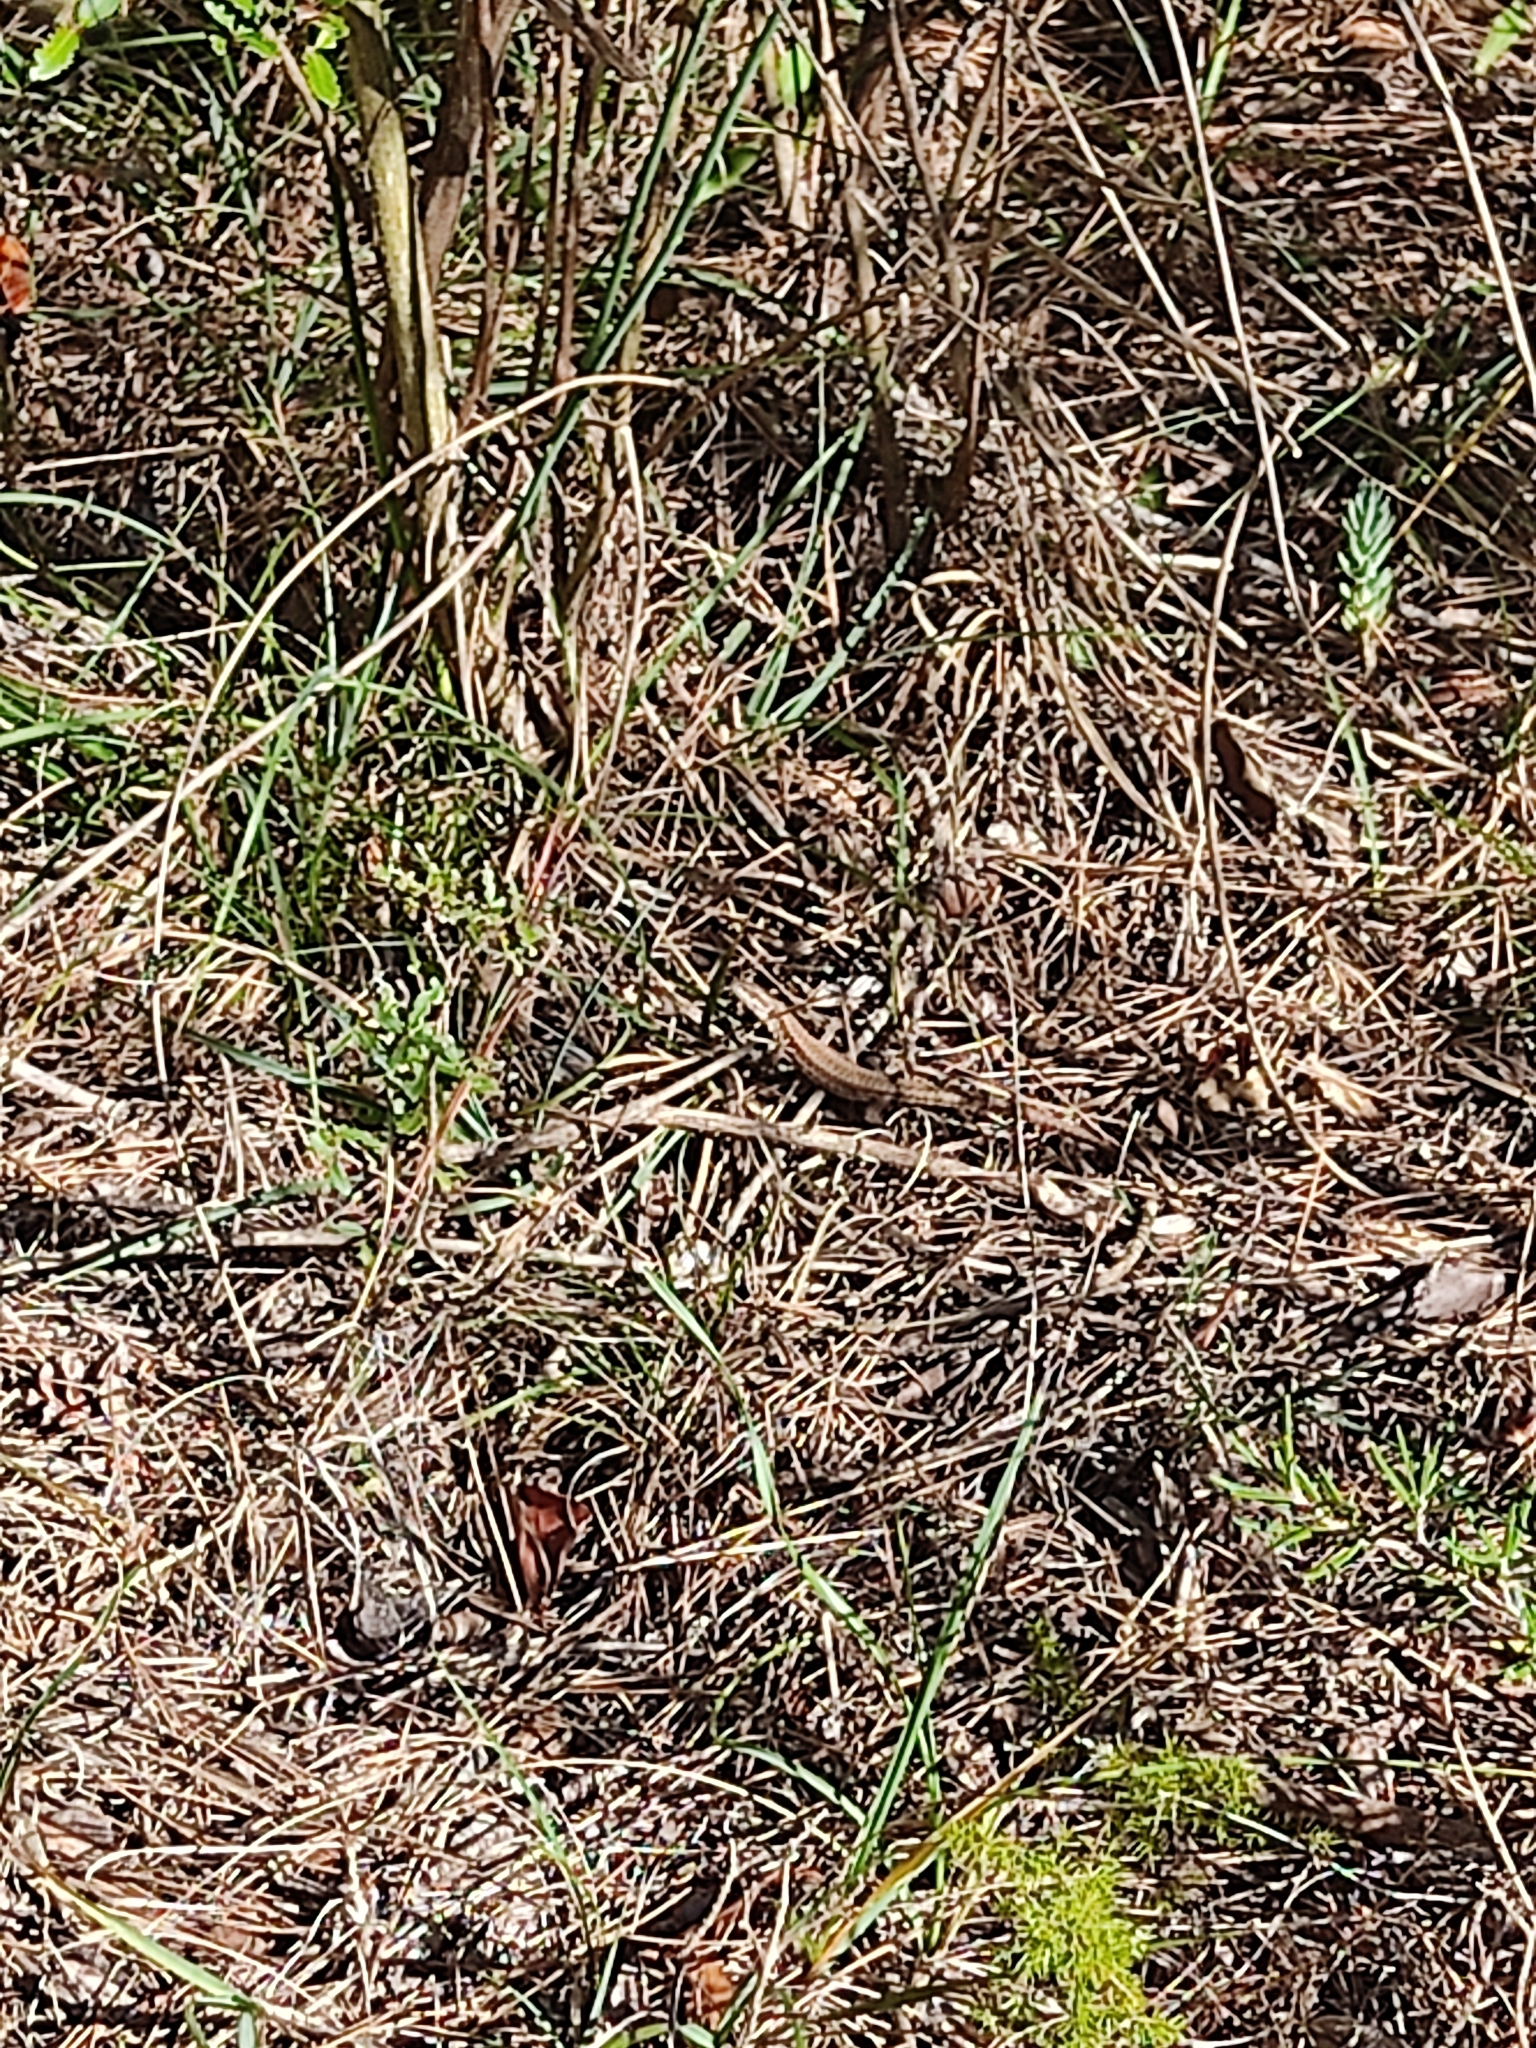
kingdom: Animalia
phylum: Chordata
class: Squamata
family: Lacertidae
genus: Podarcis
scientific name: Podarcis muralis
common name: Common wall lizard
